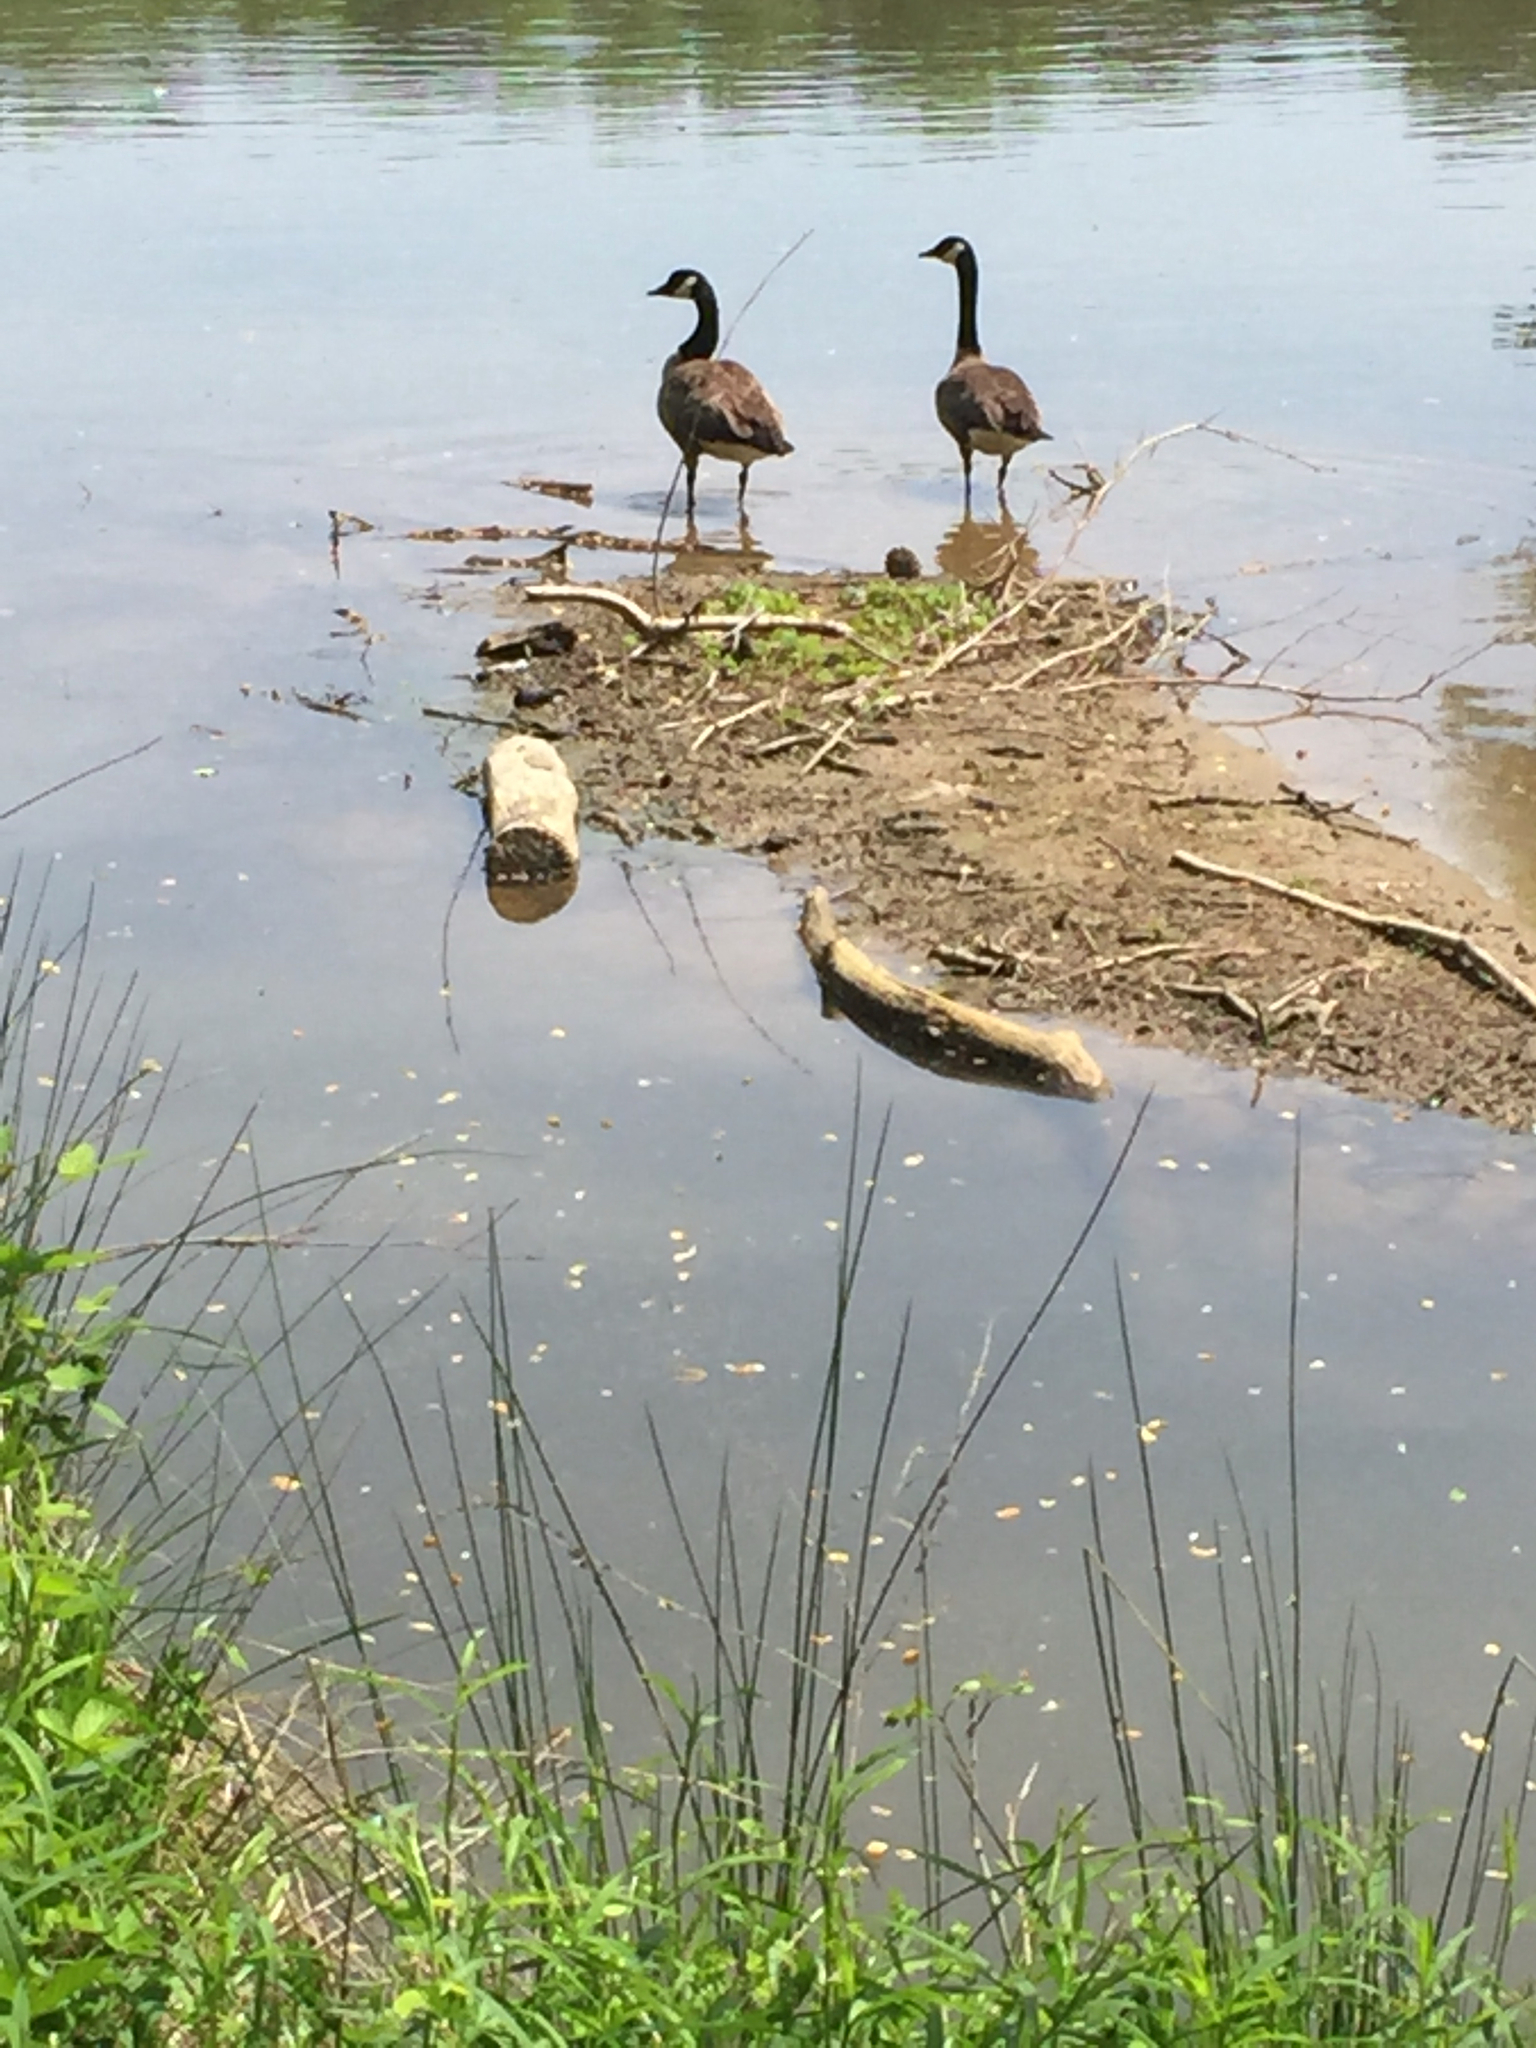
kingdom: Animalia
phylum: Chordata
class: Aves
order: Anseriformes
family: Anatidae
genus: Branta
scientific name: Branta canadensis
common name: Canada goose
